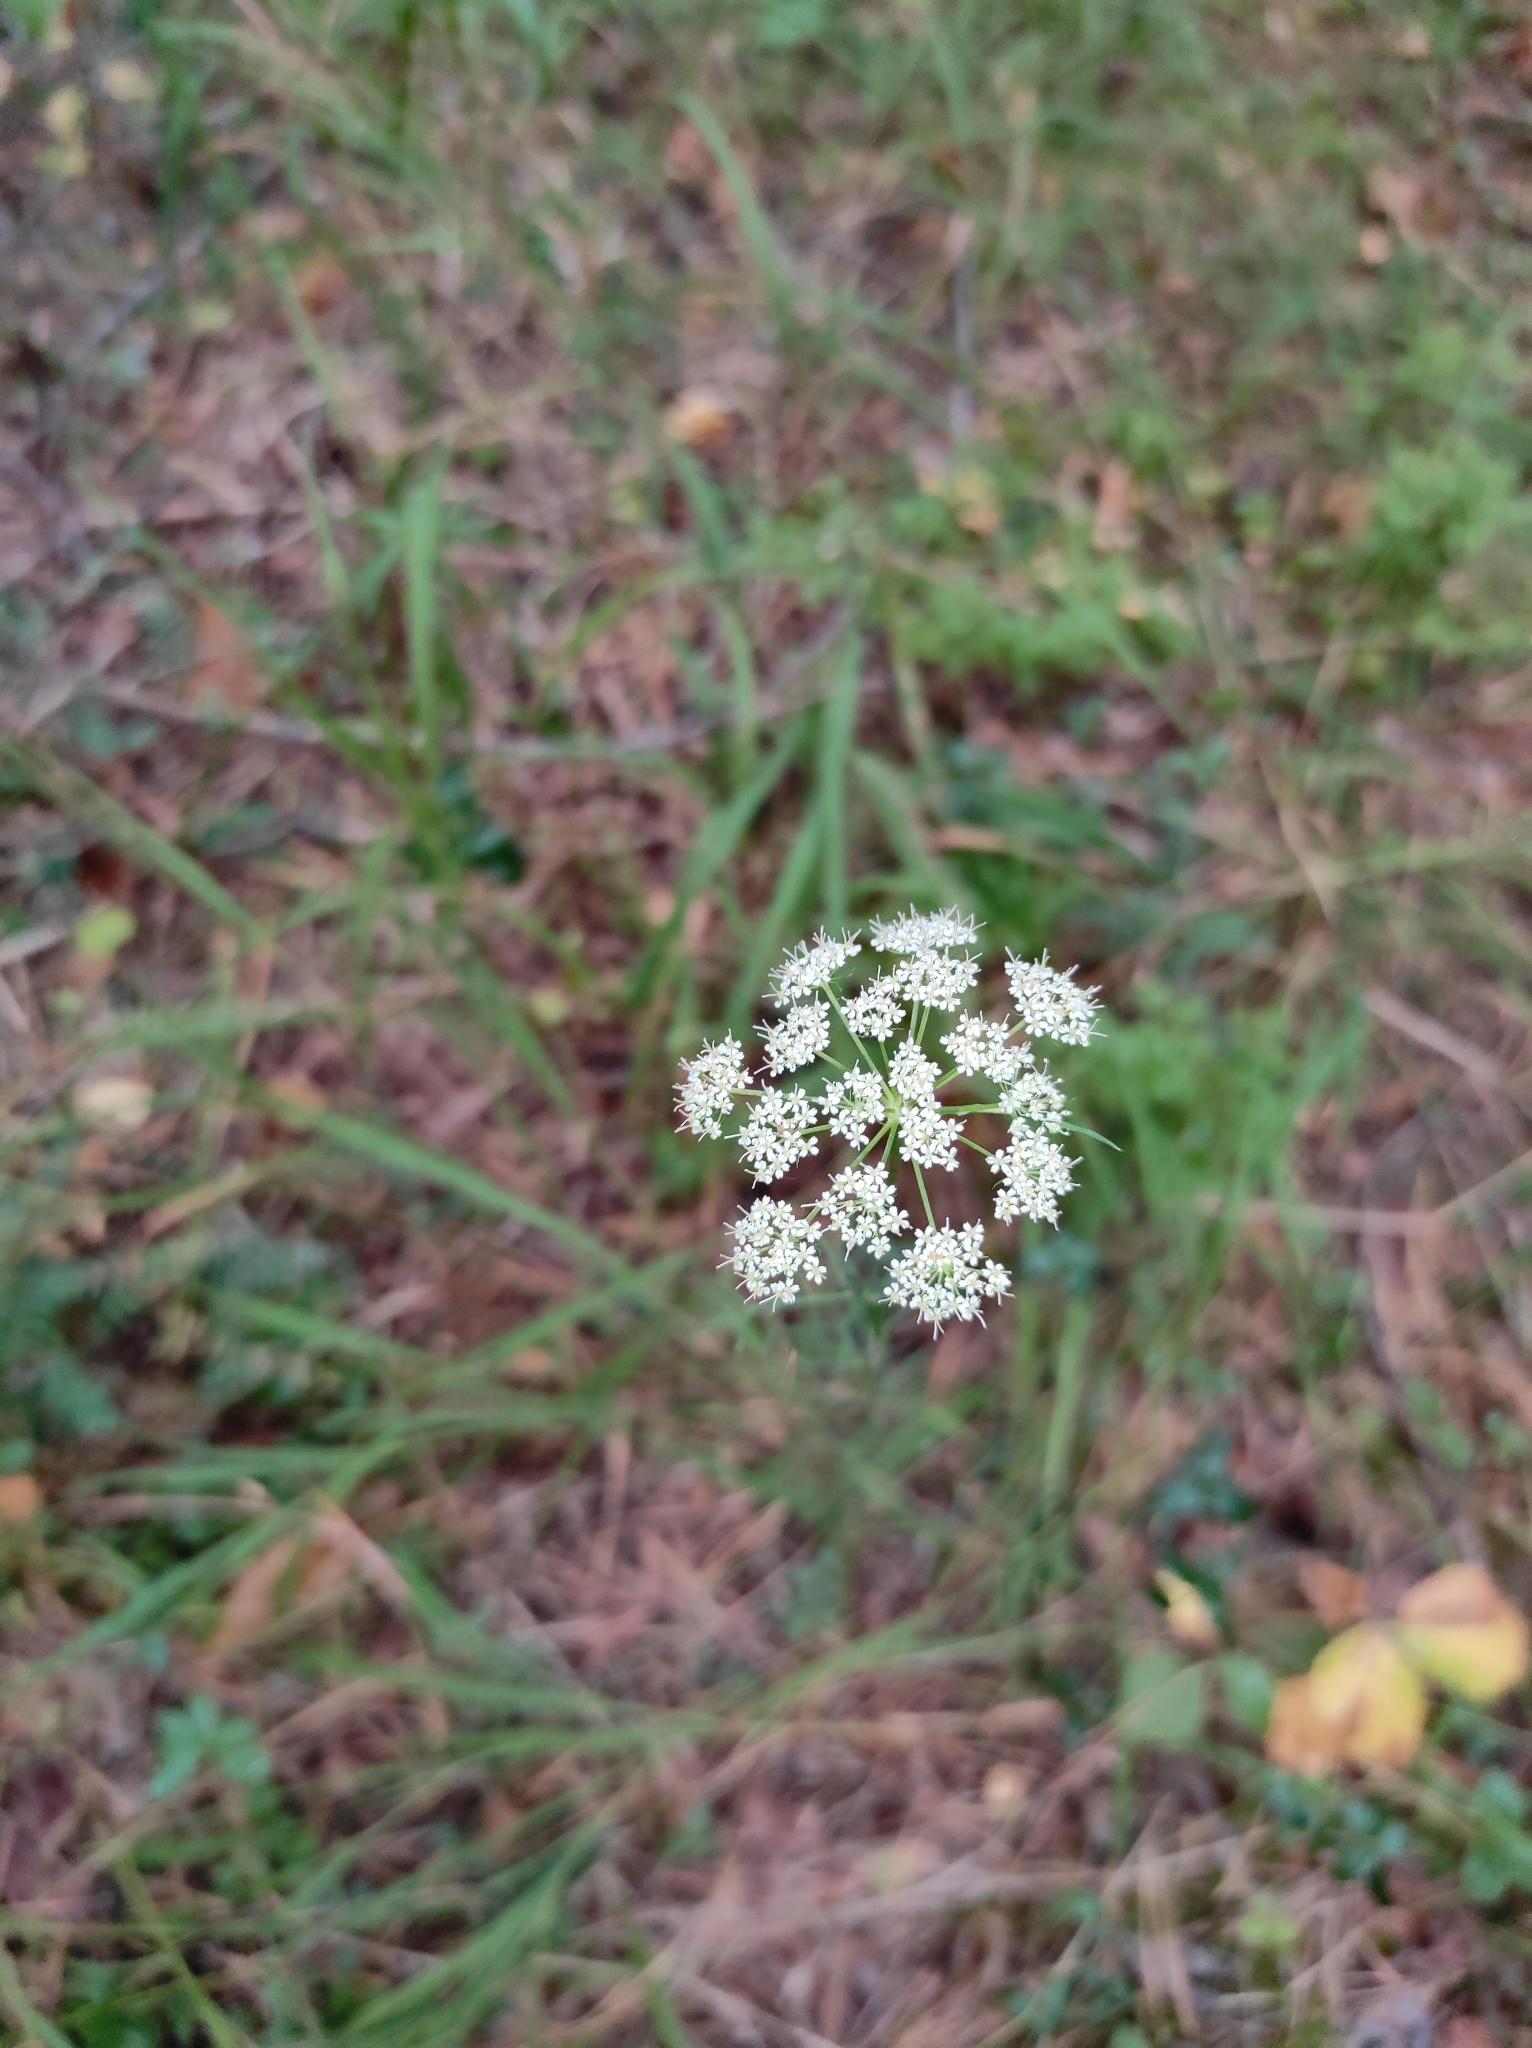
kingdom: Plantae
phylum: Tracheophyta
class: Magnoliopsida
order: Apiales
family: Apiaceae
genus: Kadenia
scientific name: Kadenia dubia
